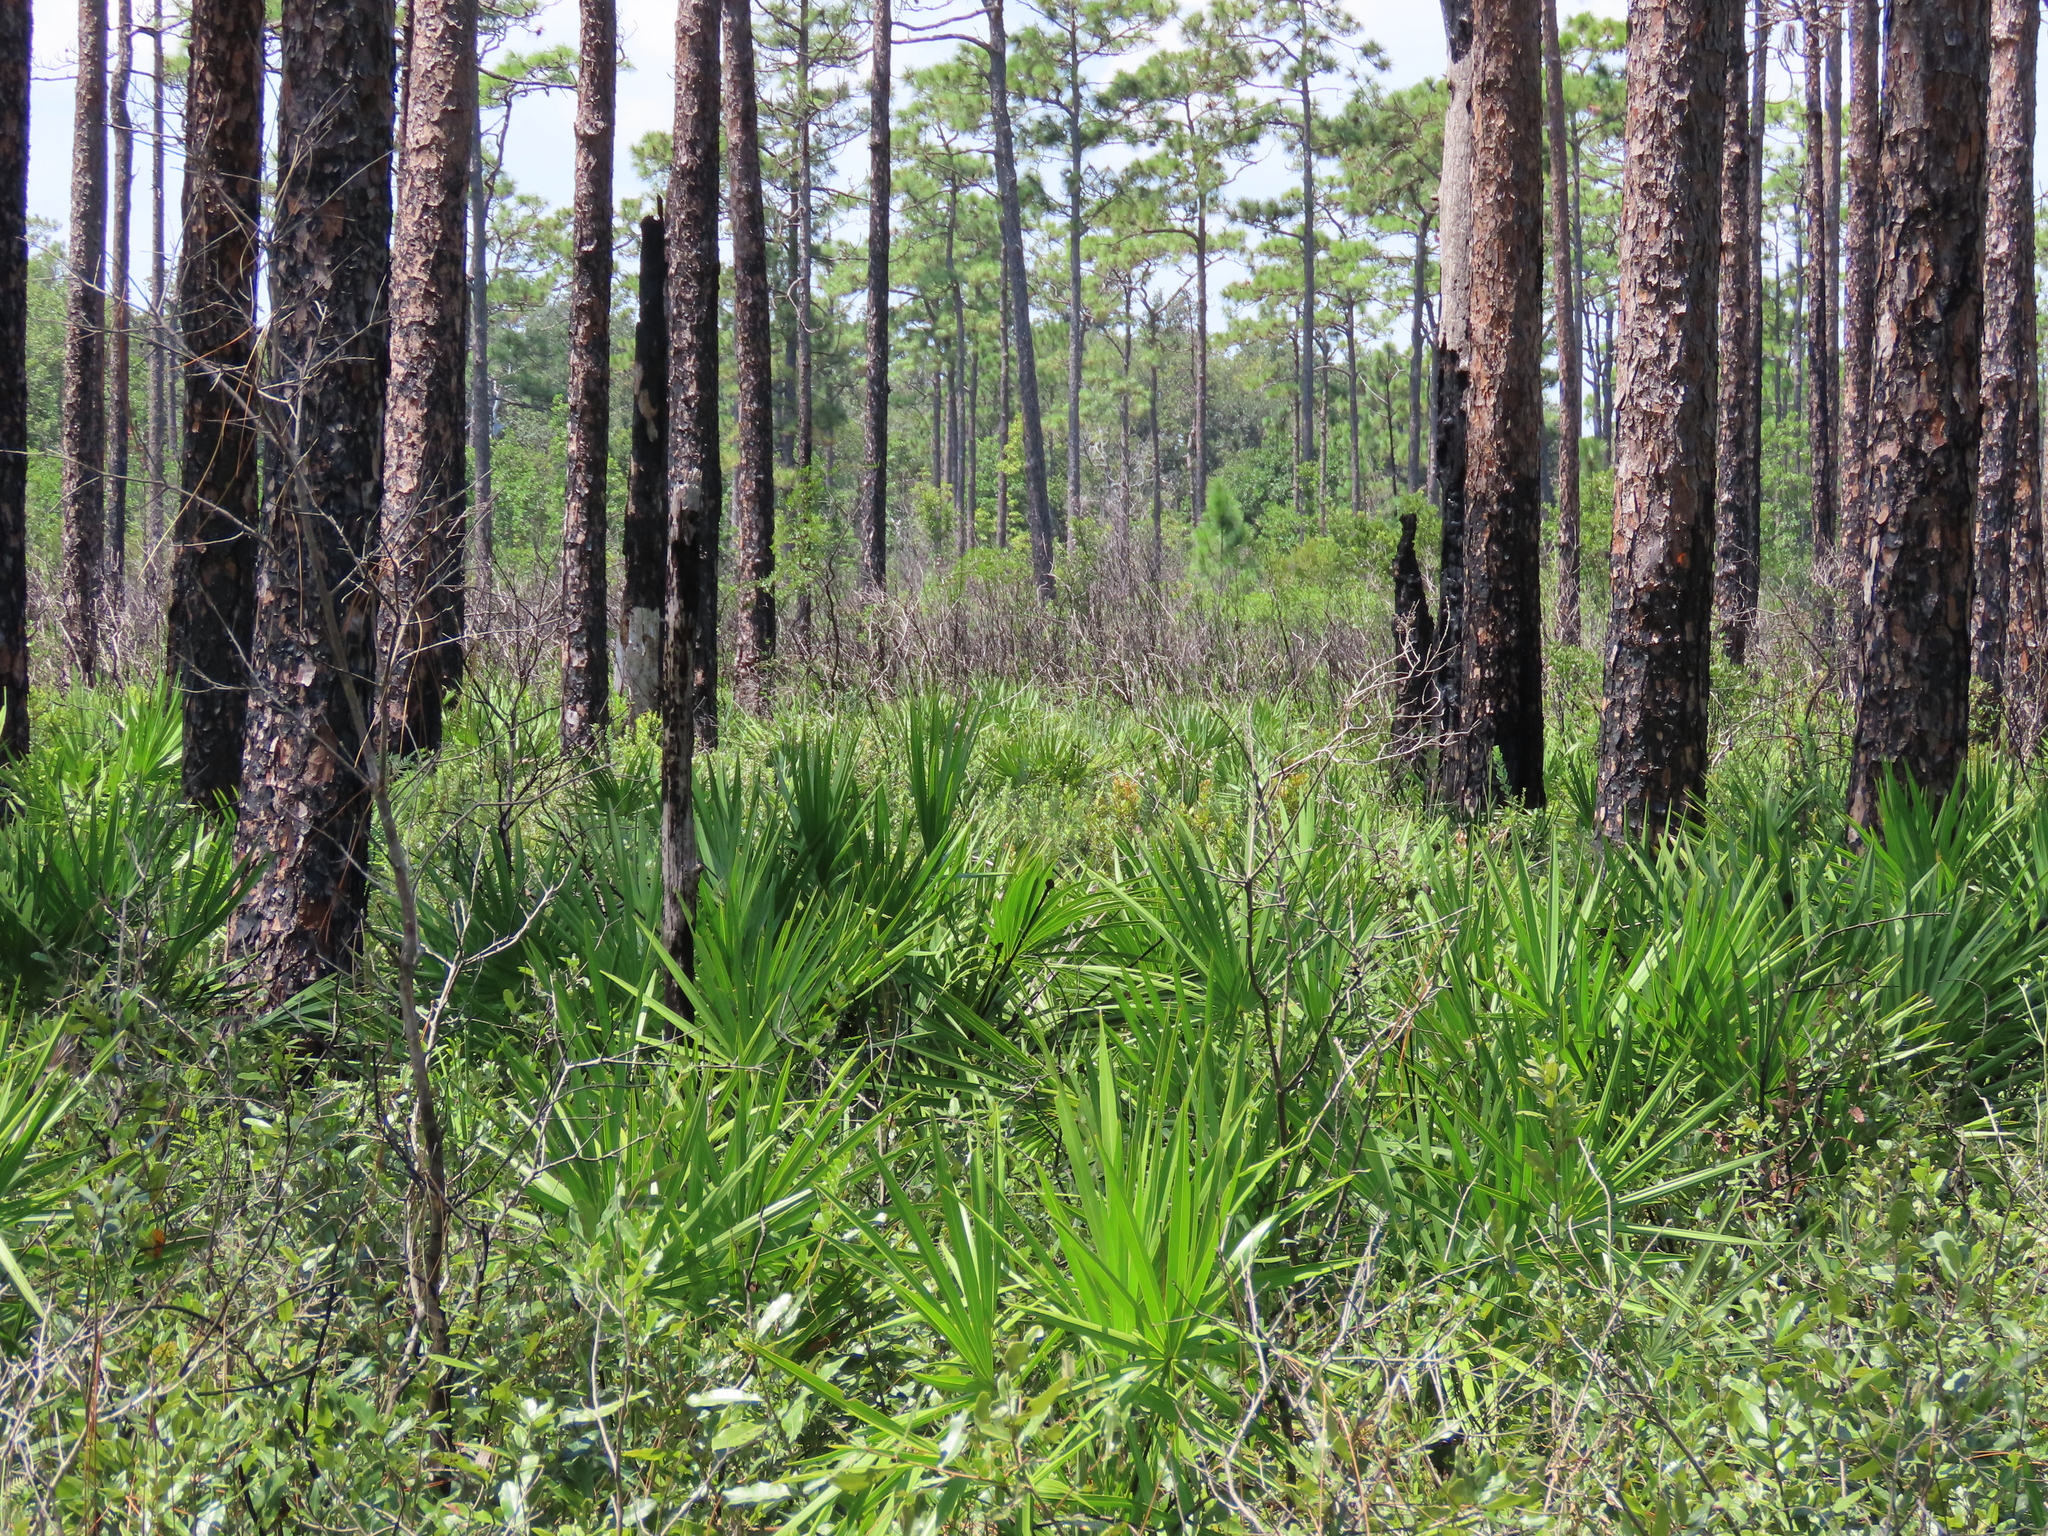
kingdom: Plantae
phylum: Tracheophyta
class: Liliopsida
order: Arecales
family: Arecaceae
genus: Serenoa
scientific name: Serenoa repens
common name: Saw-palmetto
